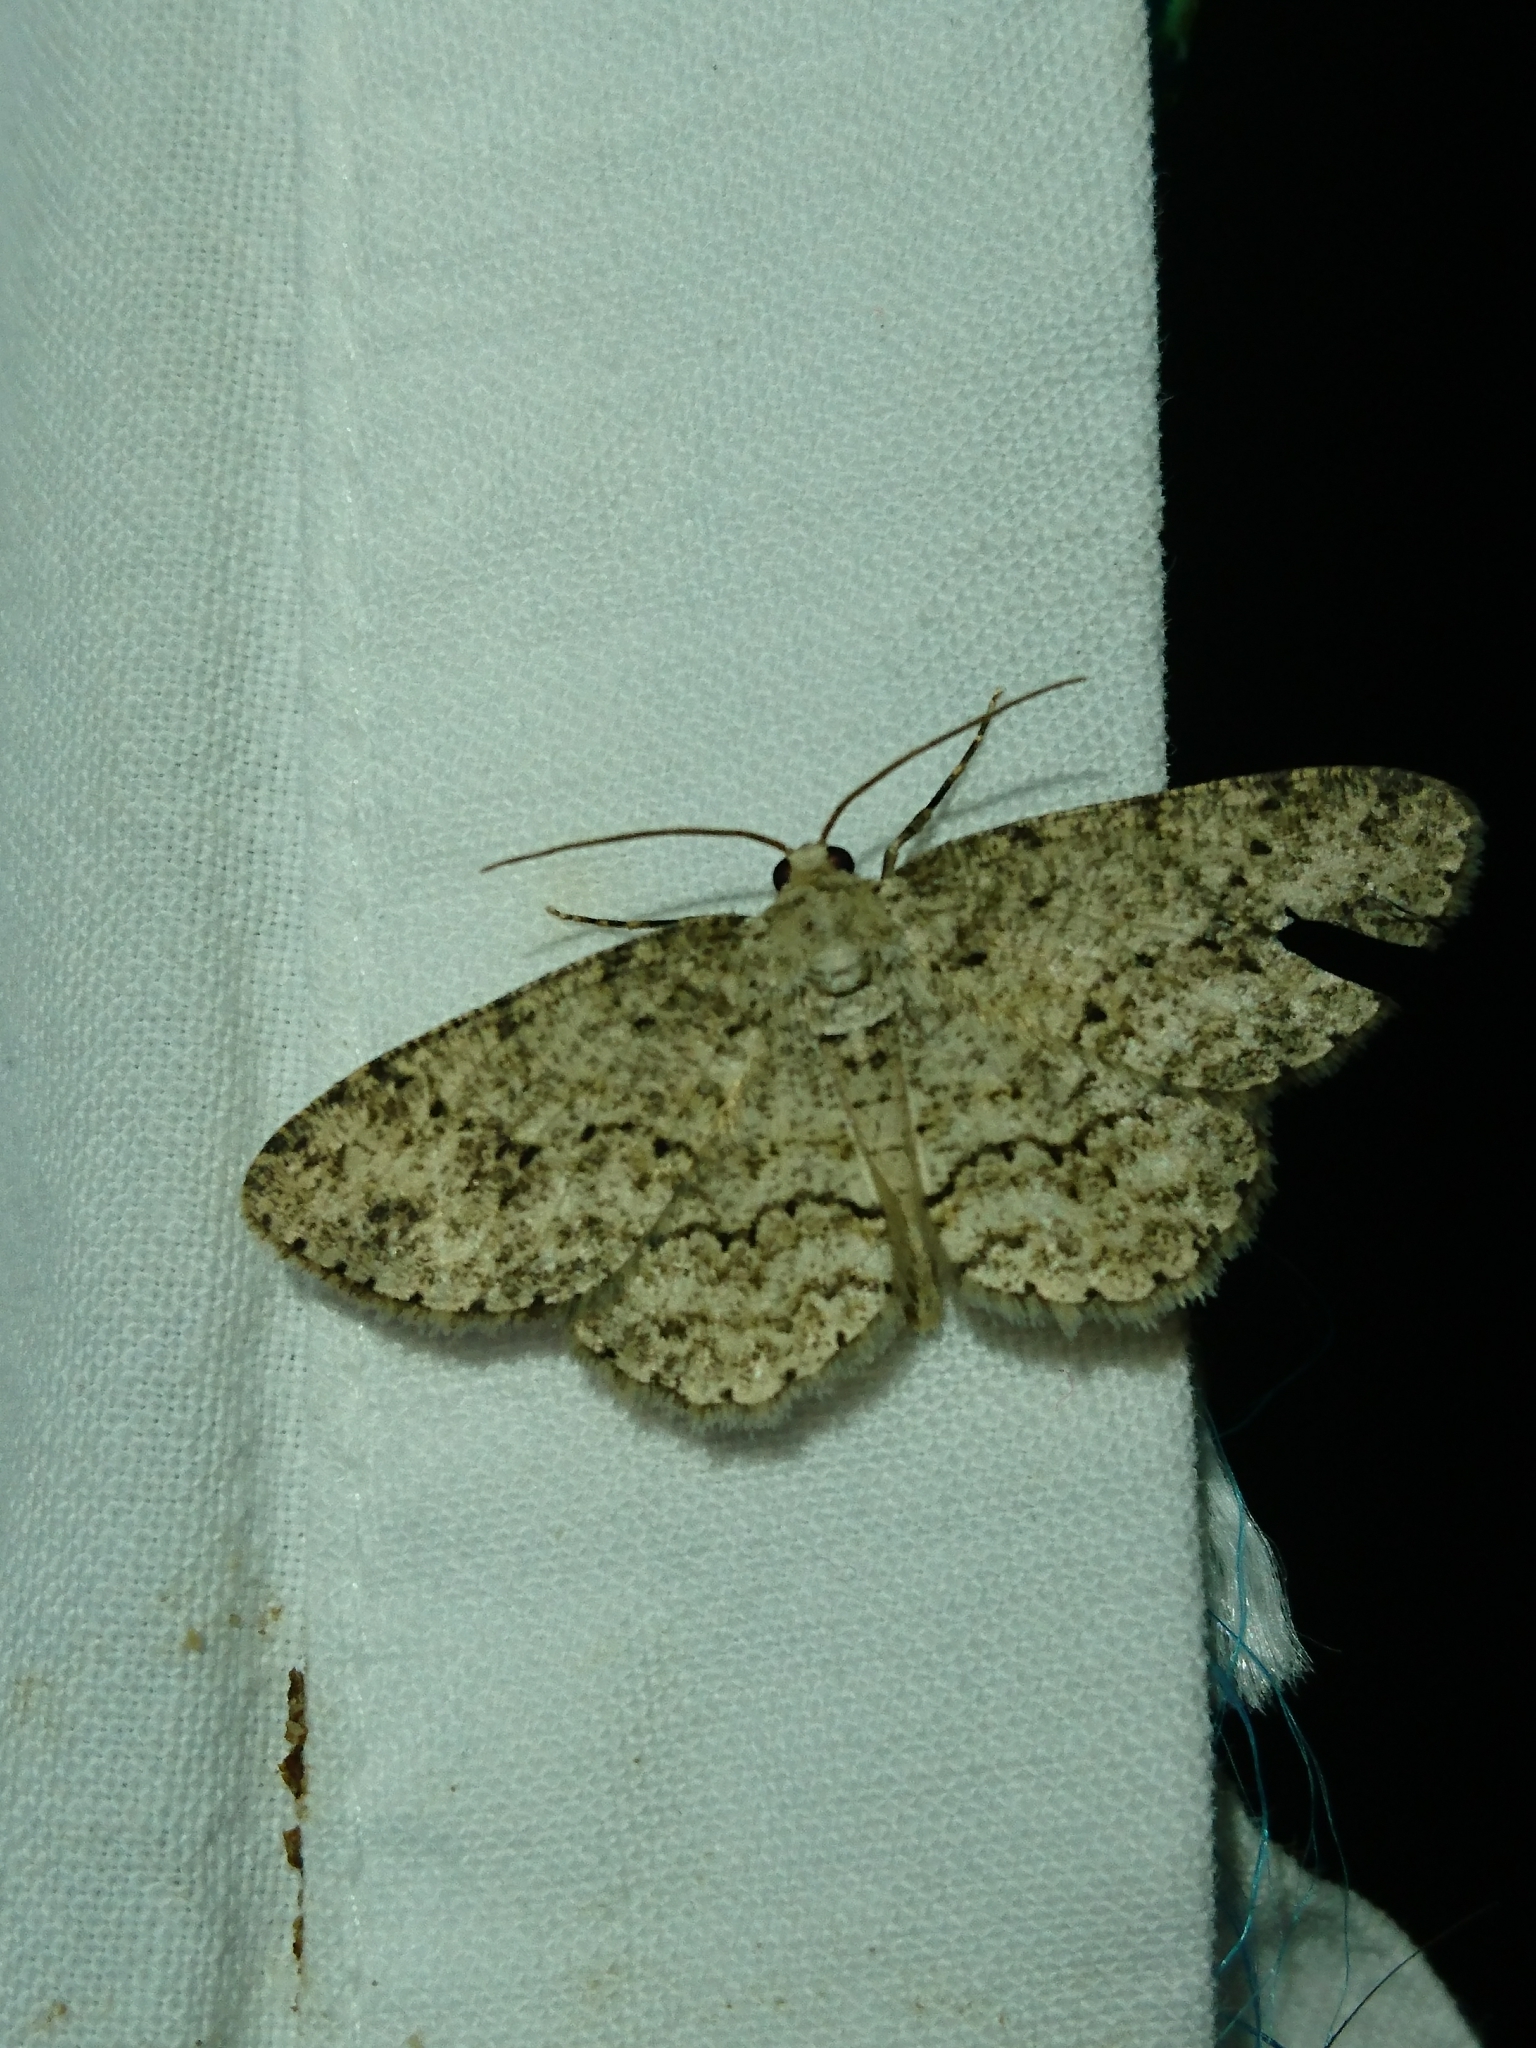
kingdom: Animalia
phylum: Arthropoda
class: Insecta
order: Lepidoptera
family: Geometridae
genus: Ectropis
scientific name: Ectropis crepuscularia
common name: Engrailed
